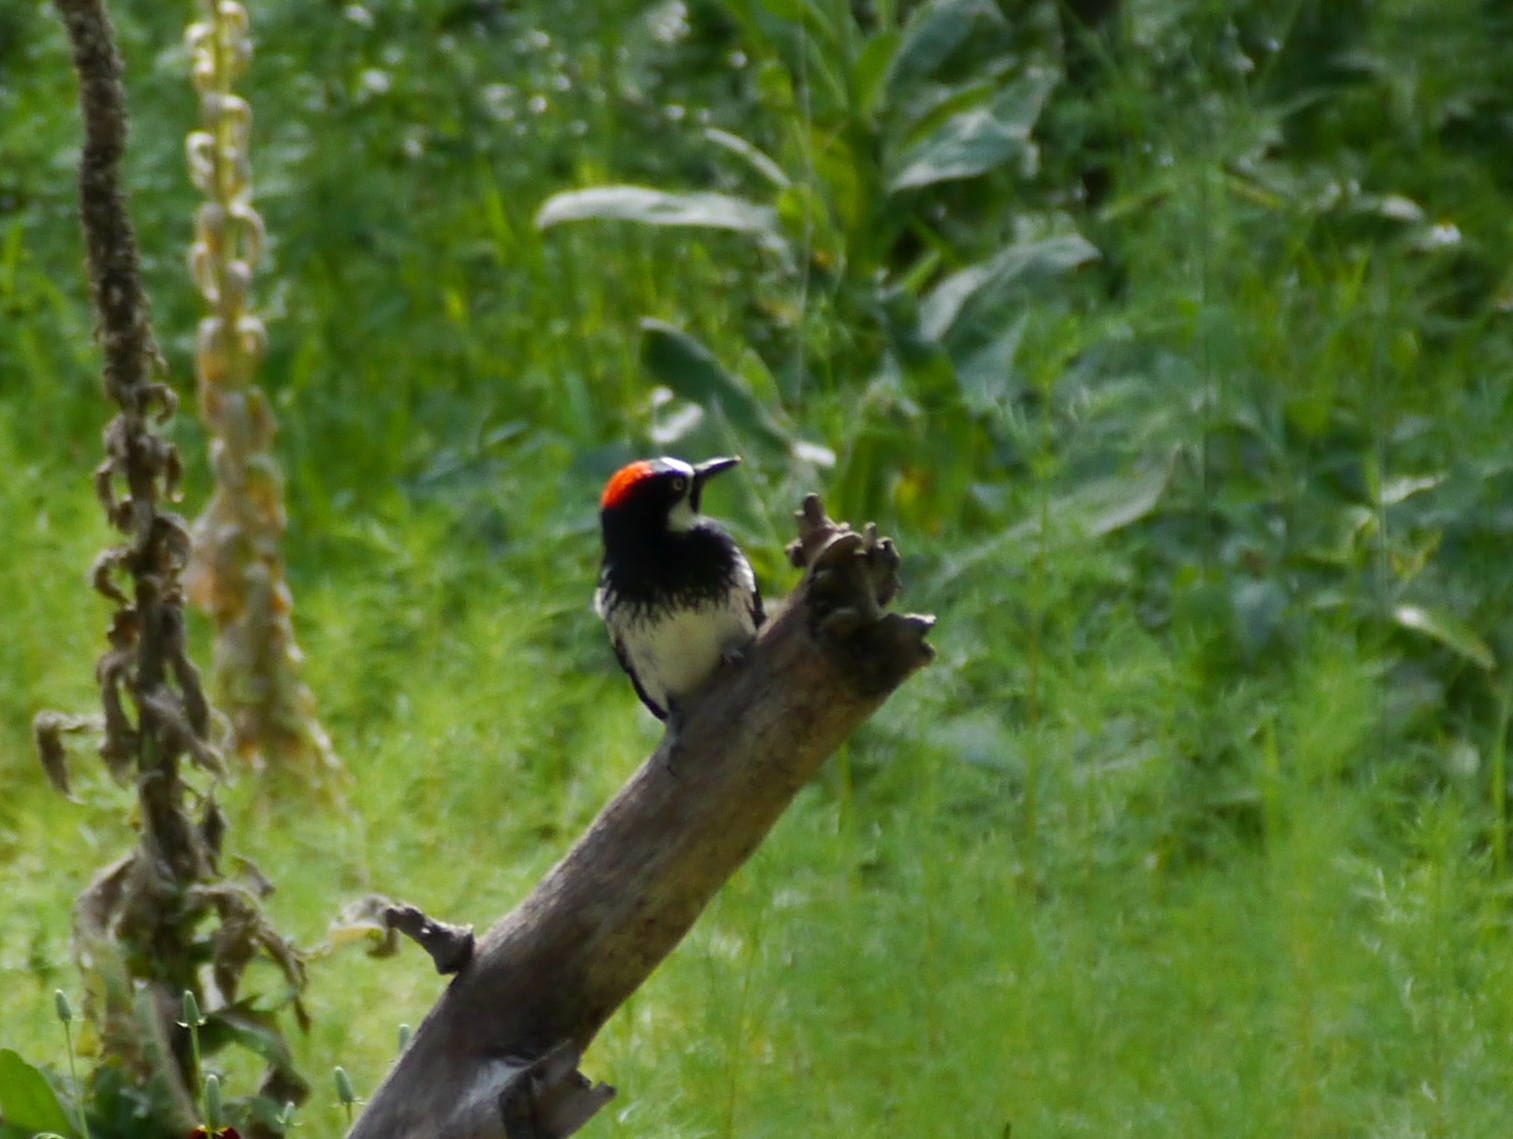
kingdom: Animalia
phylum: Chordata
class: Aves
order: Piciformes
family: Picidae
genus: Melanerpes
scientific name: Melanerpes formicivorus
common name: Acorn woodpecker
